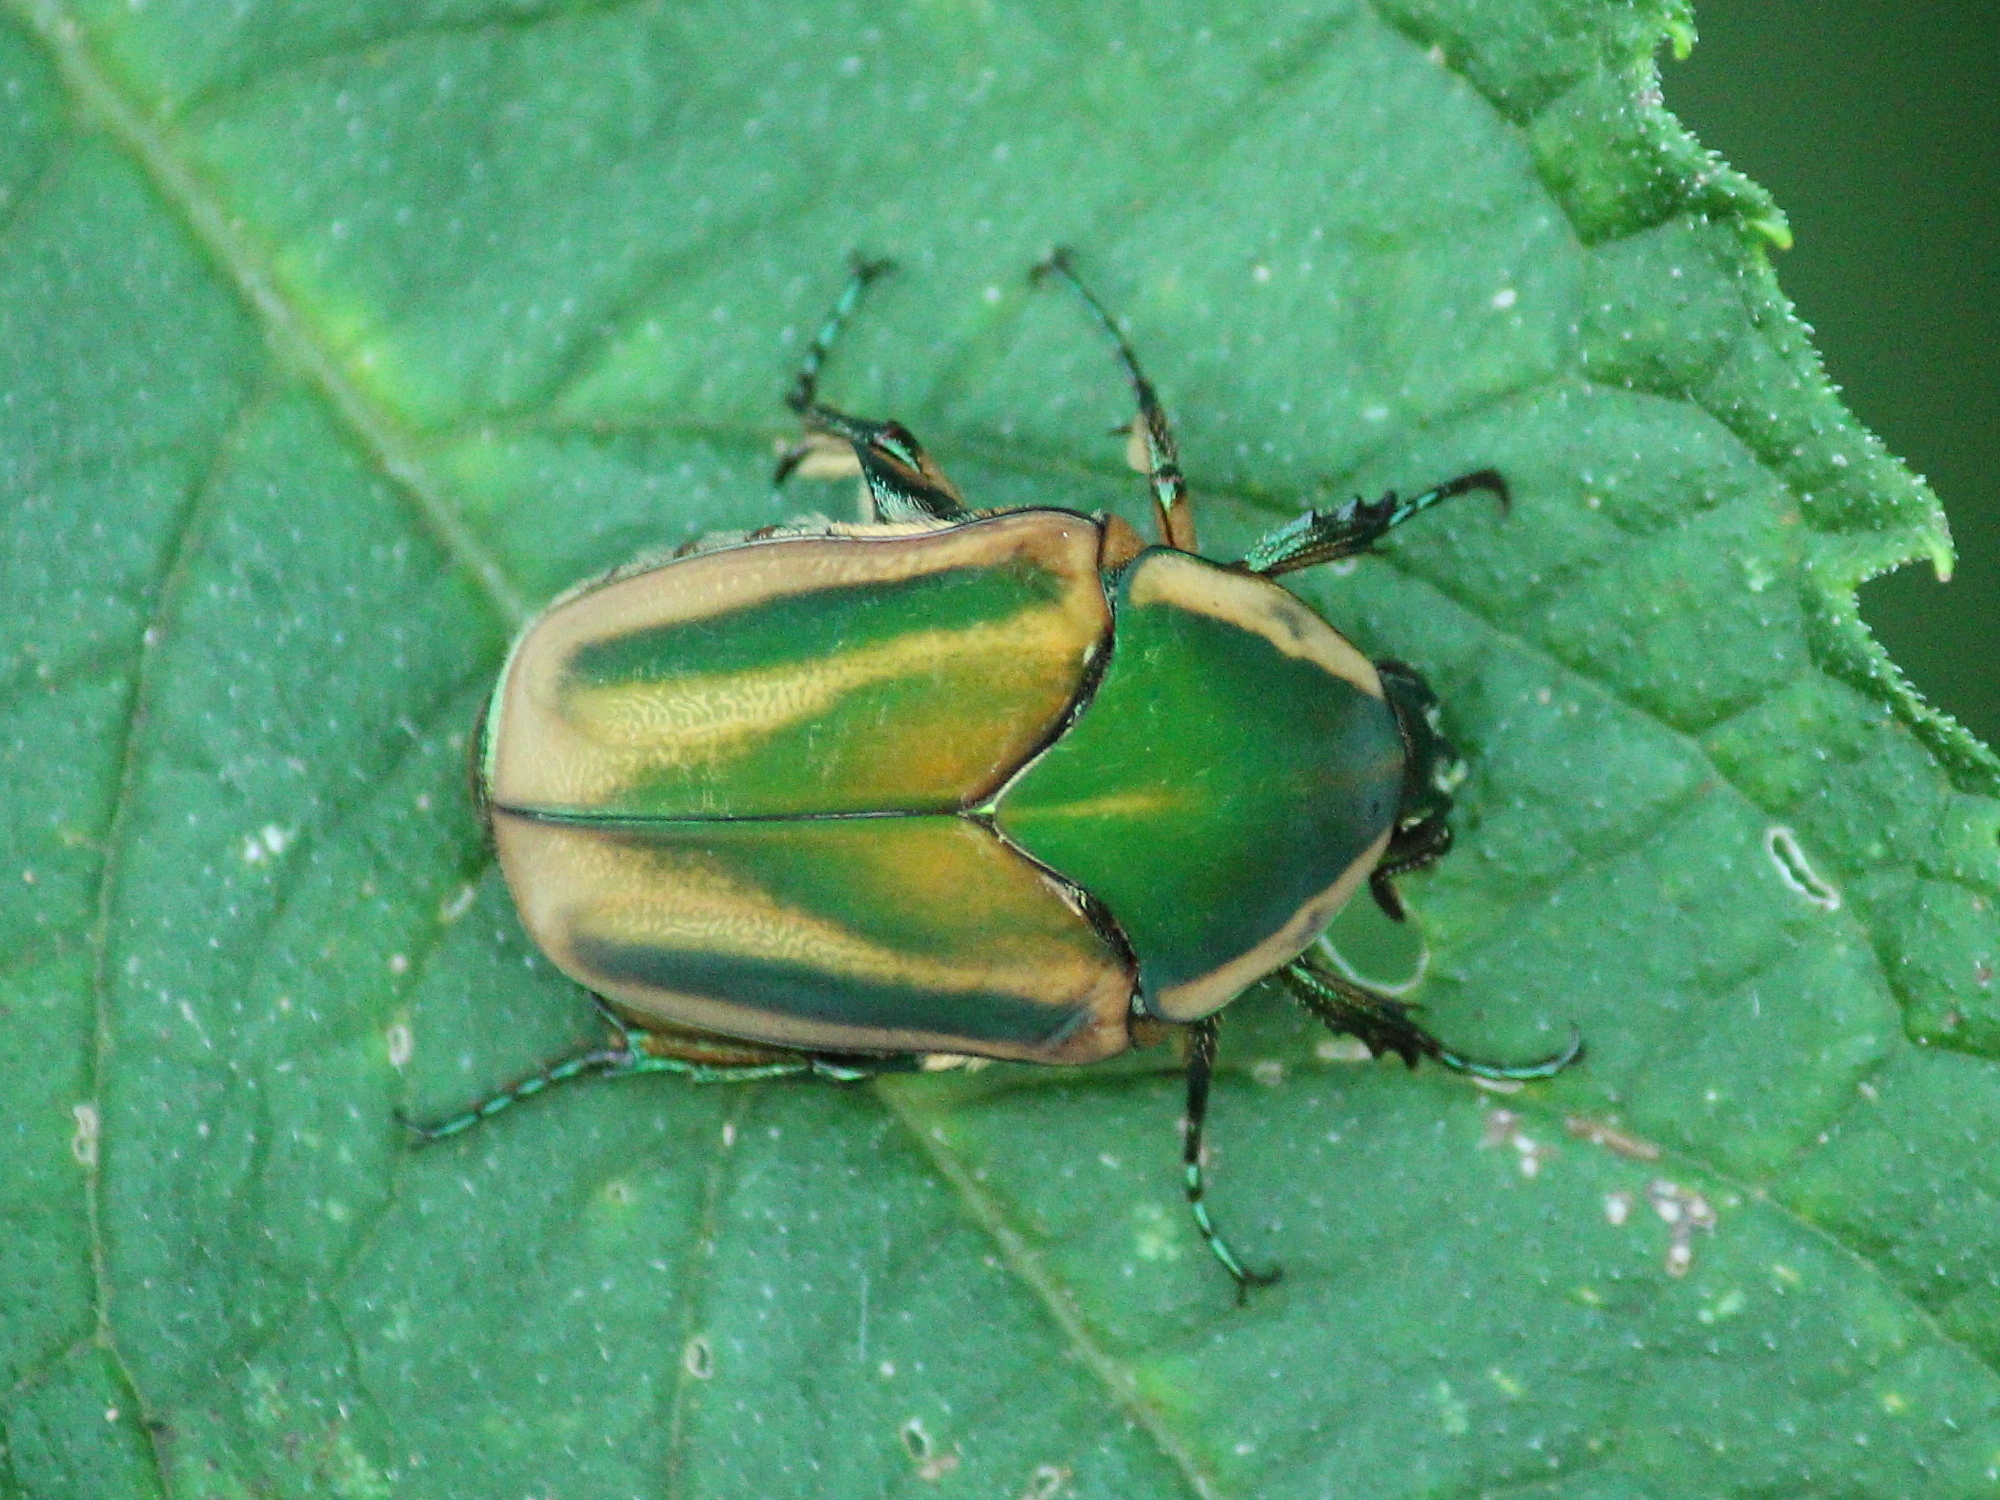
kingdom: Animalia
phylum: Arthropoda
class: Insecta
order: Coleoptera
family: Scarabaeidae
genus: Cotinis
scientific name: Cotinis nitida
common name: Common green june beetle
